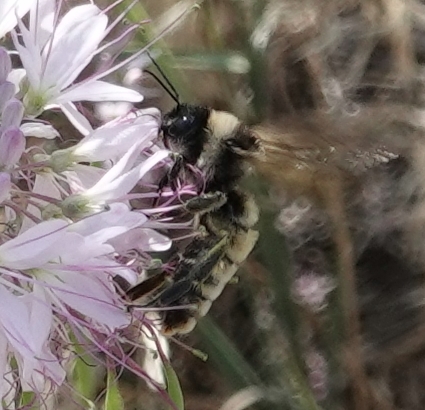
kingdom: Animalia
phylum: Arthropoda
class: Insecta
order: Hymenoptera
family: Apidae
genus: Bombus
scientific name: Bombus pensylvanicus
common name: Bumble bee
